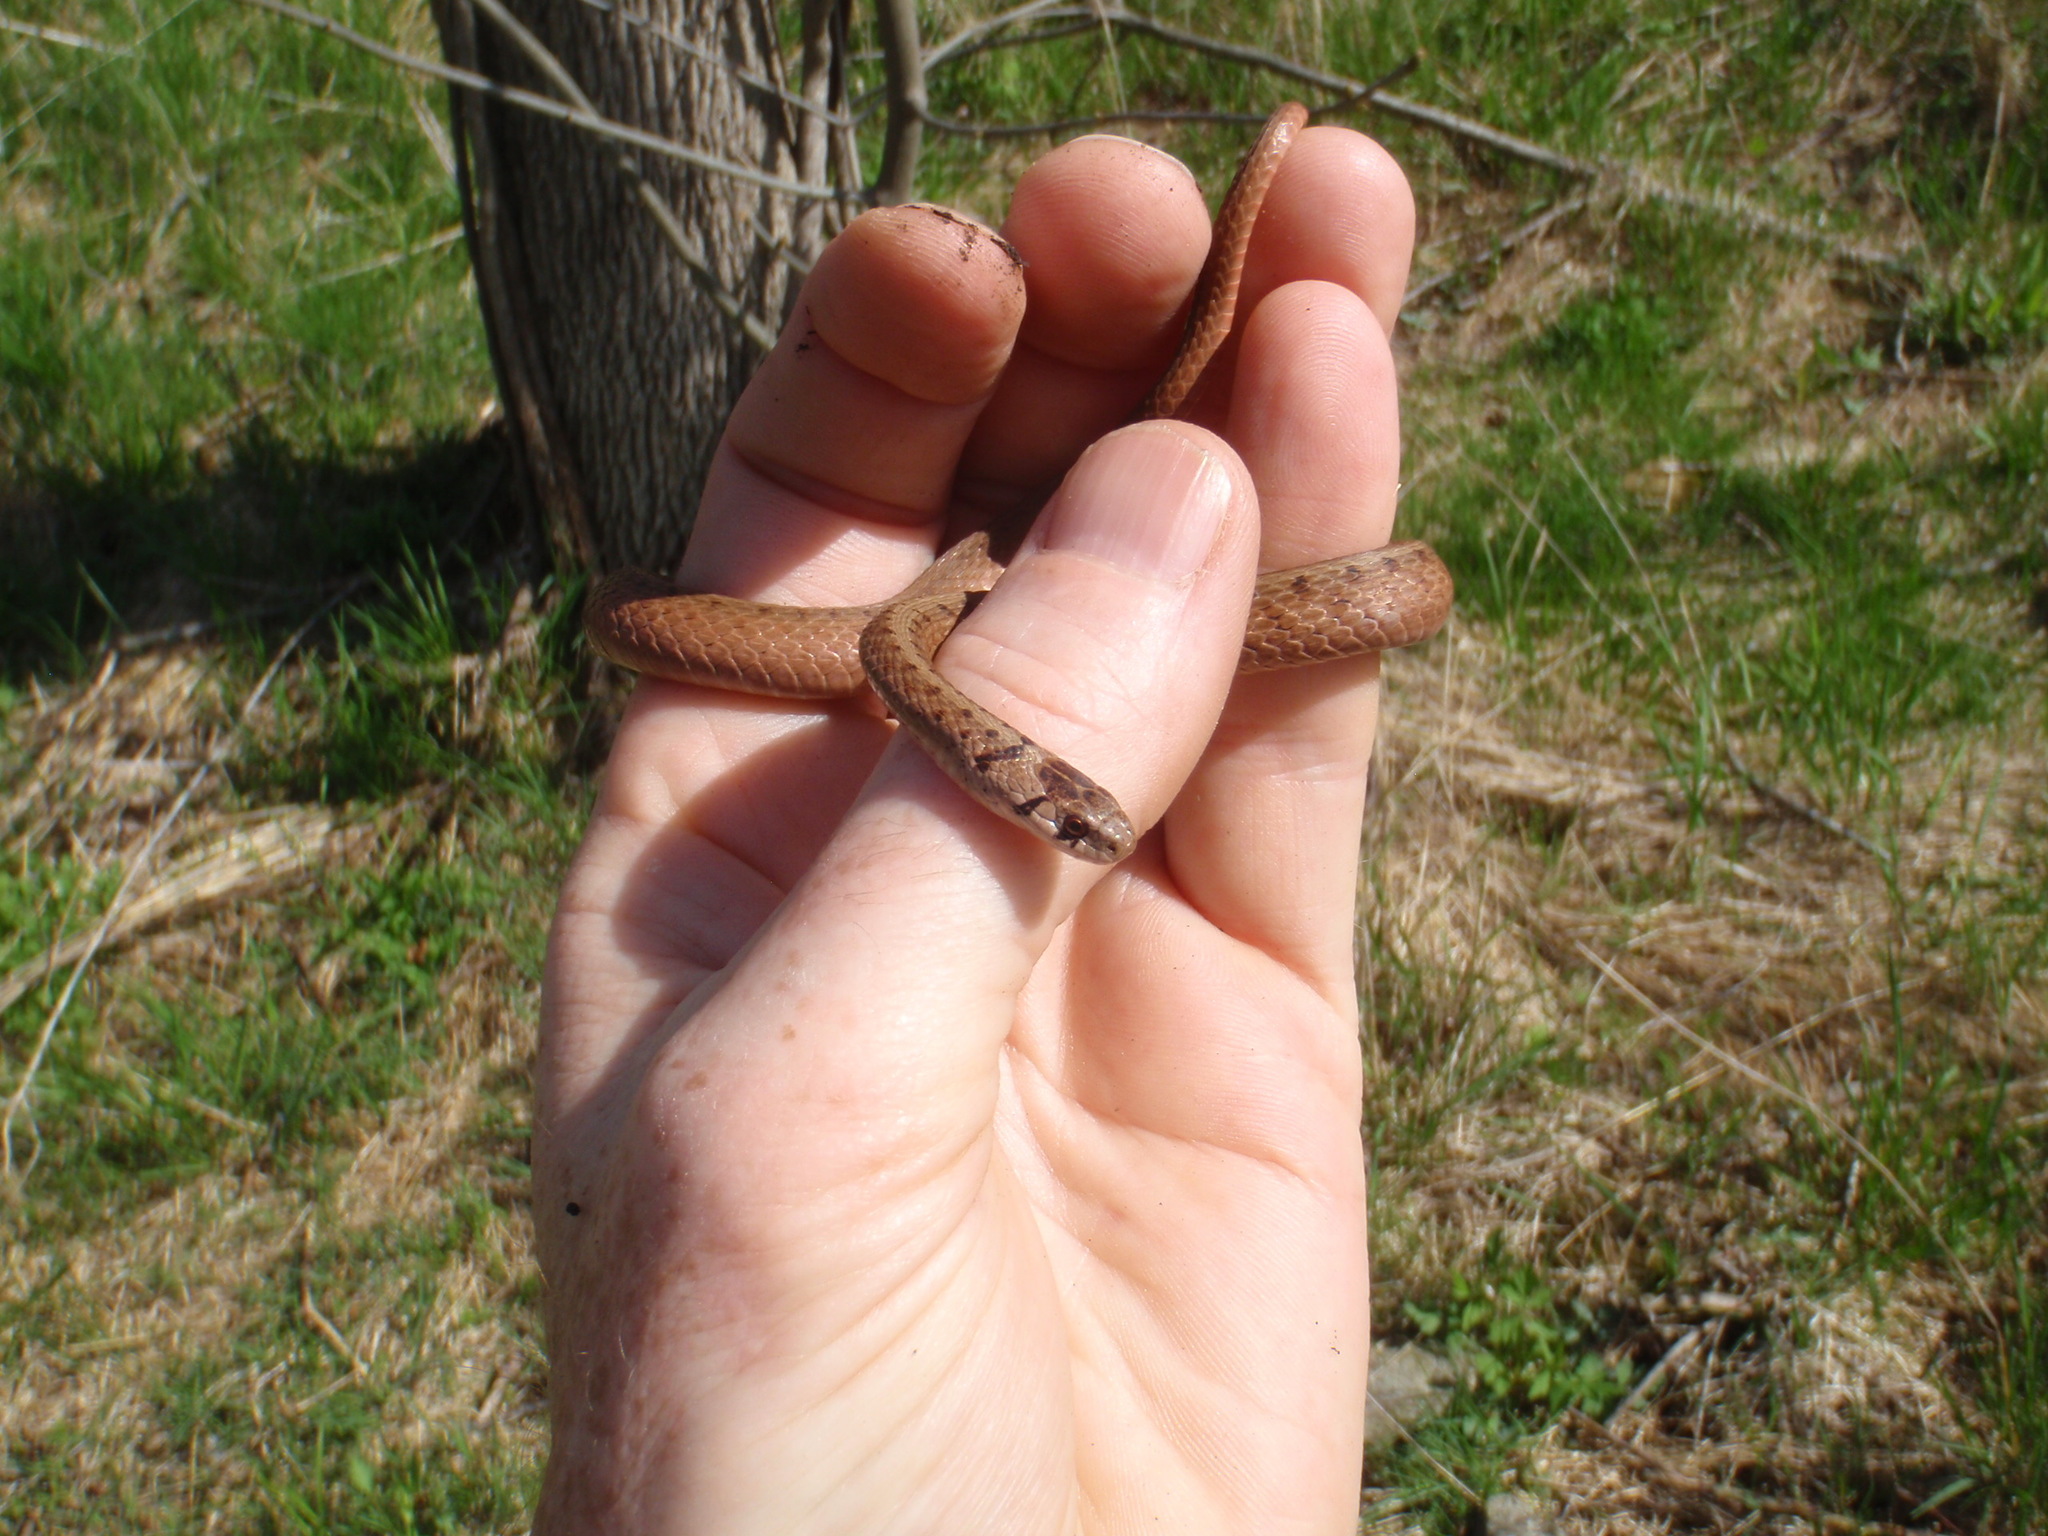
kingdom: Animalia
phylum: Chordata
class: Squamata
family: Colubridae
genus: Storeria
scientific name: Storeria dekayi
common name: (dekay’s) brown snake
